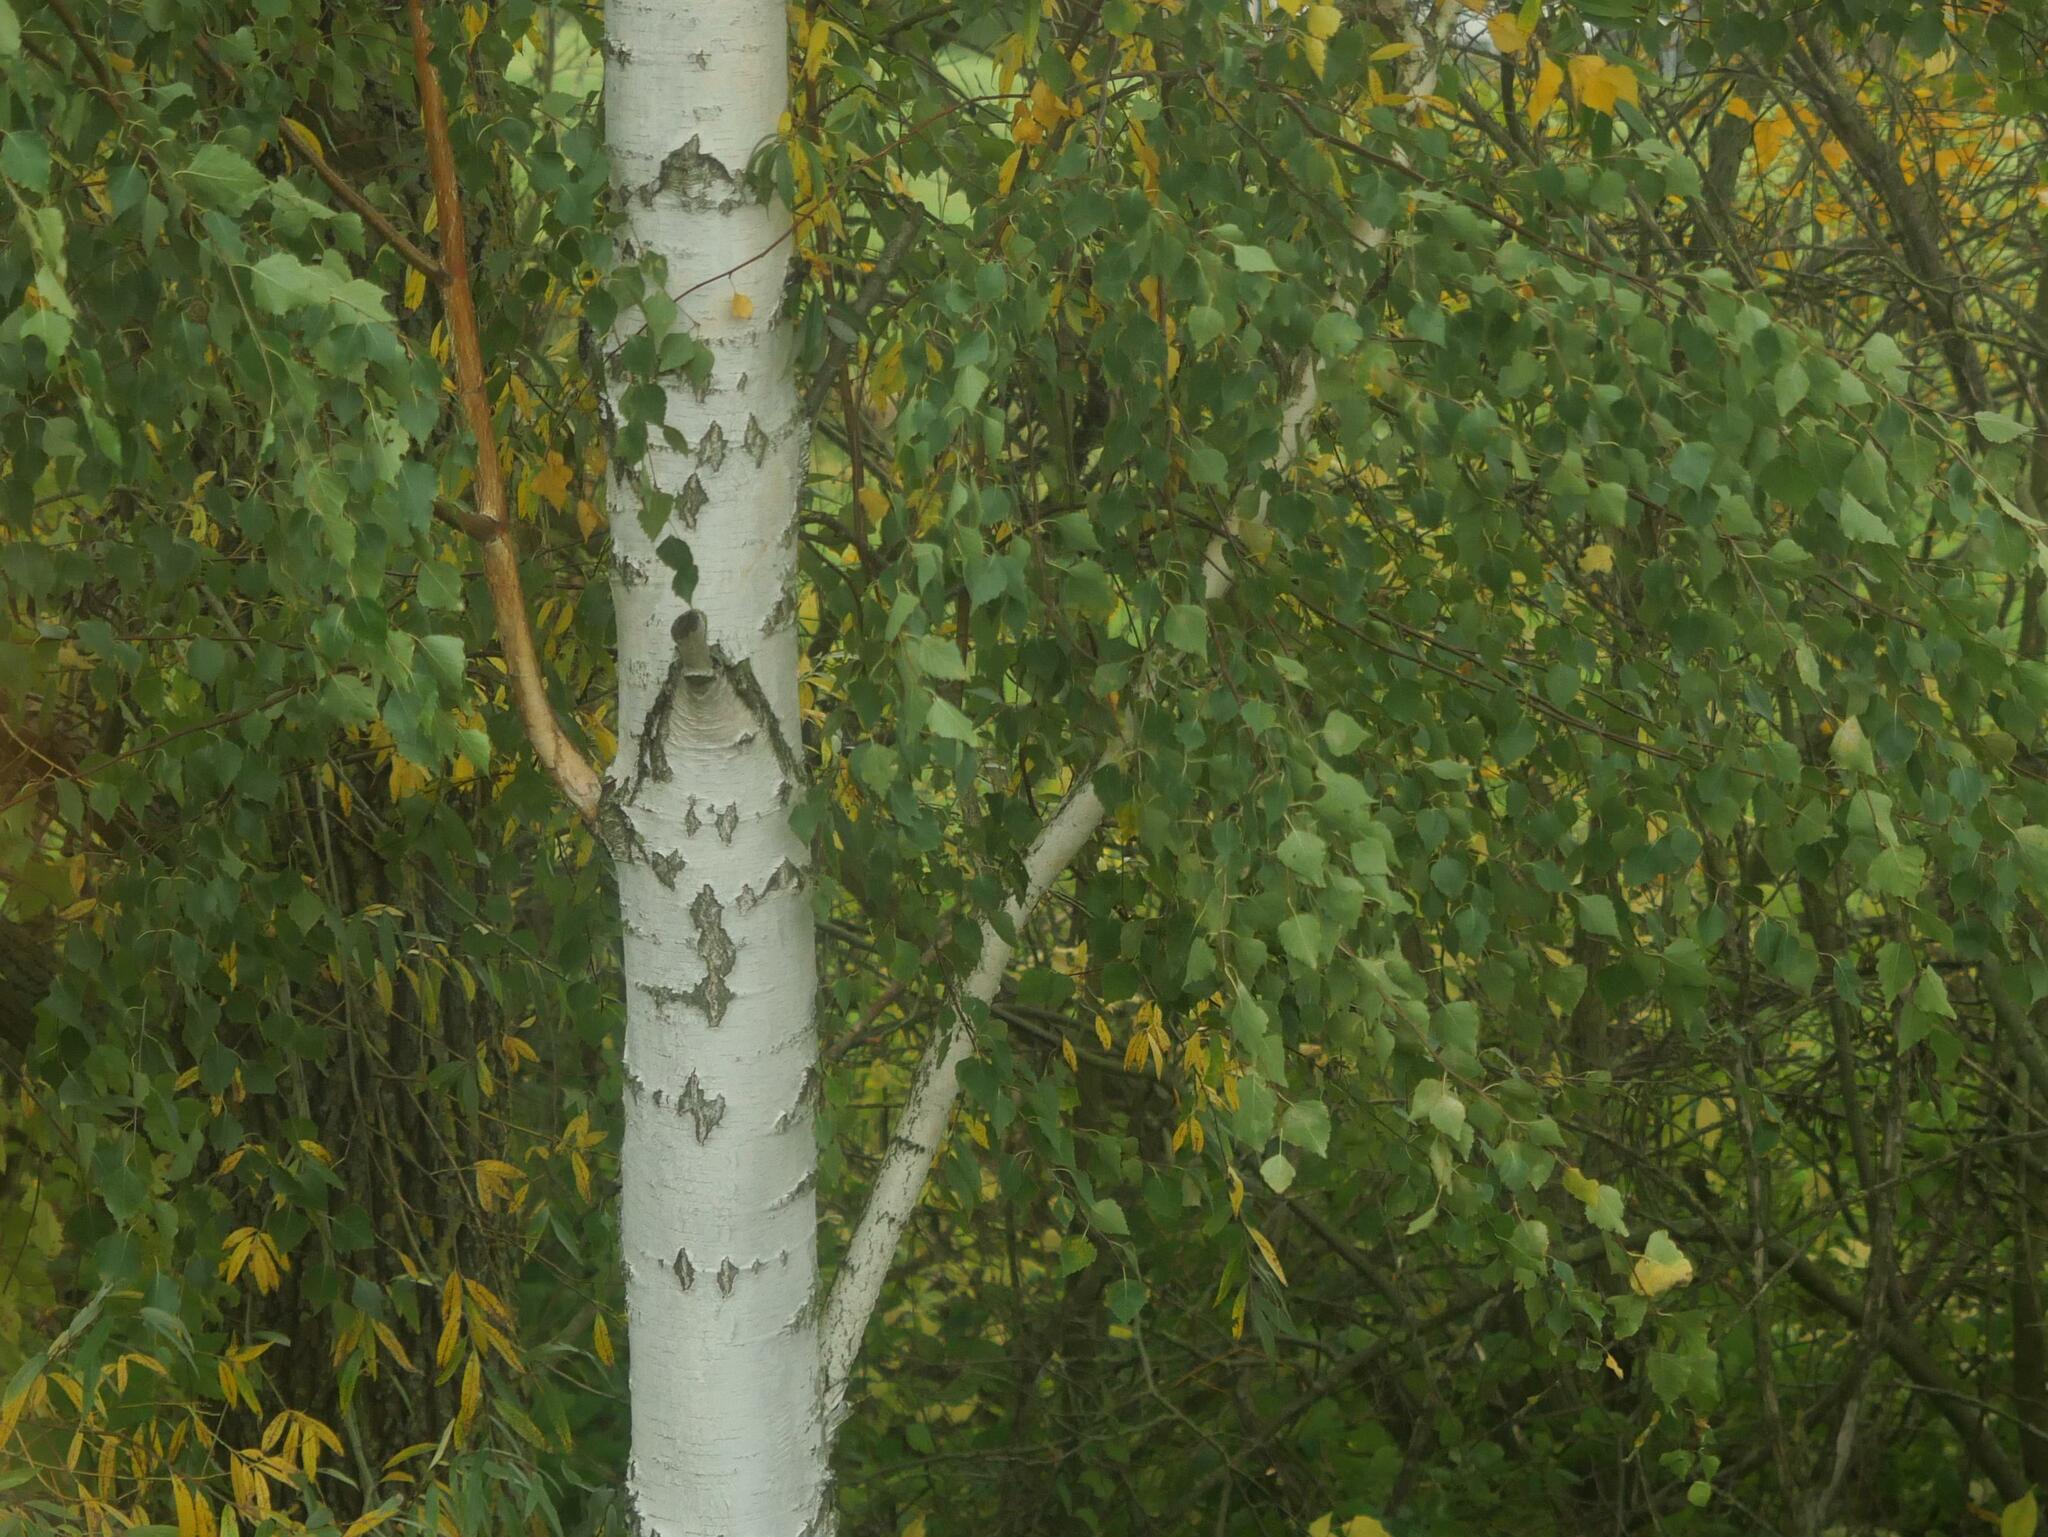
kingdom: Plantae
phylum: Tracheophyta
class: Magnoliopsida
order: Fagales
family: Betulaceae
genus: Betula
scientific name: Betula pendula
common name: Silver birch
